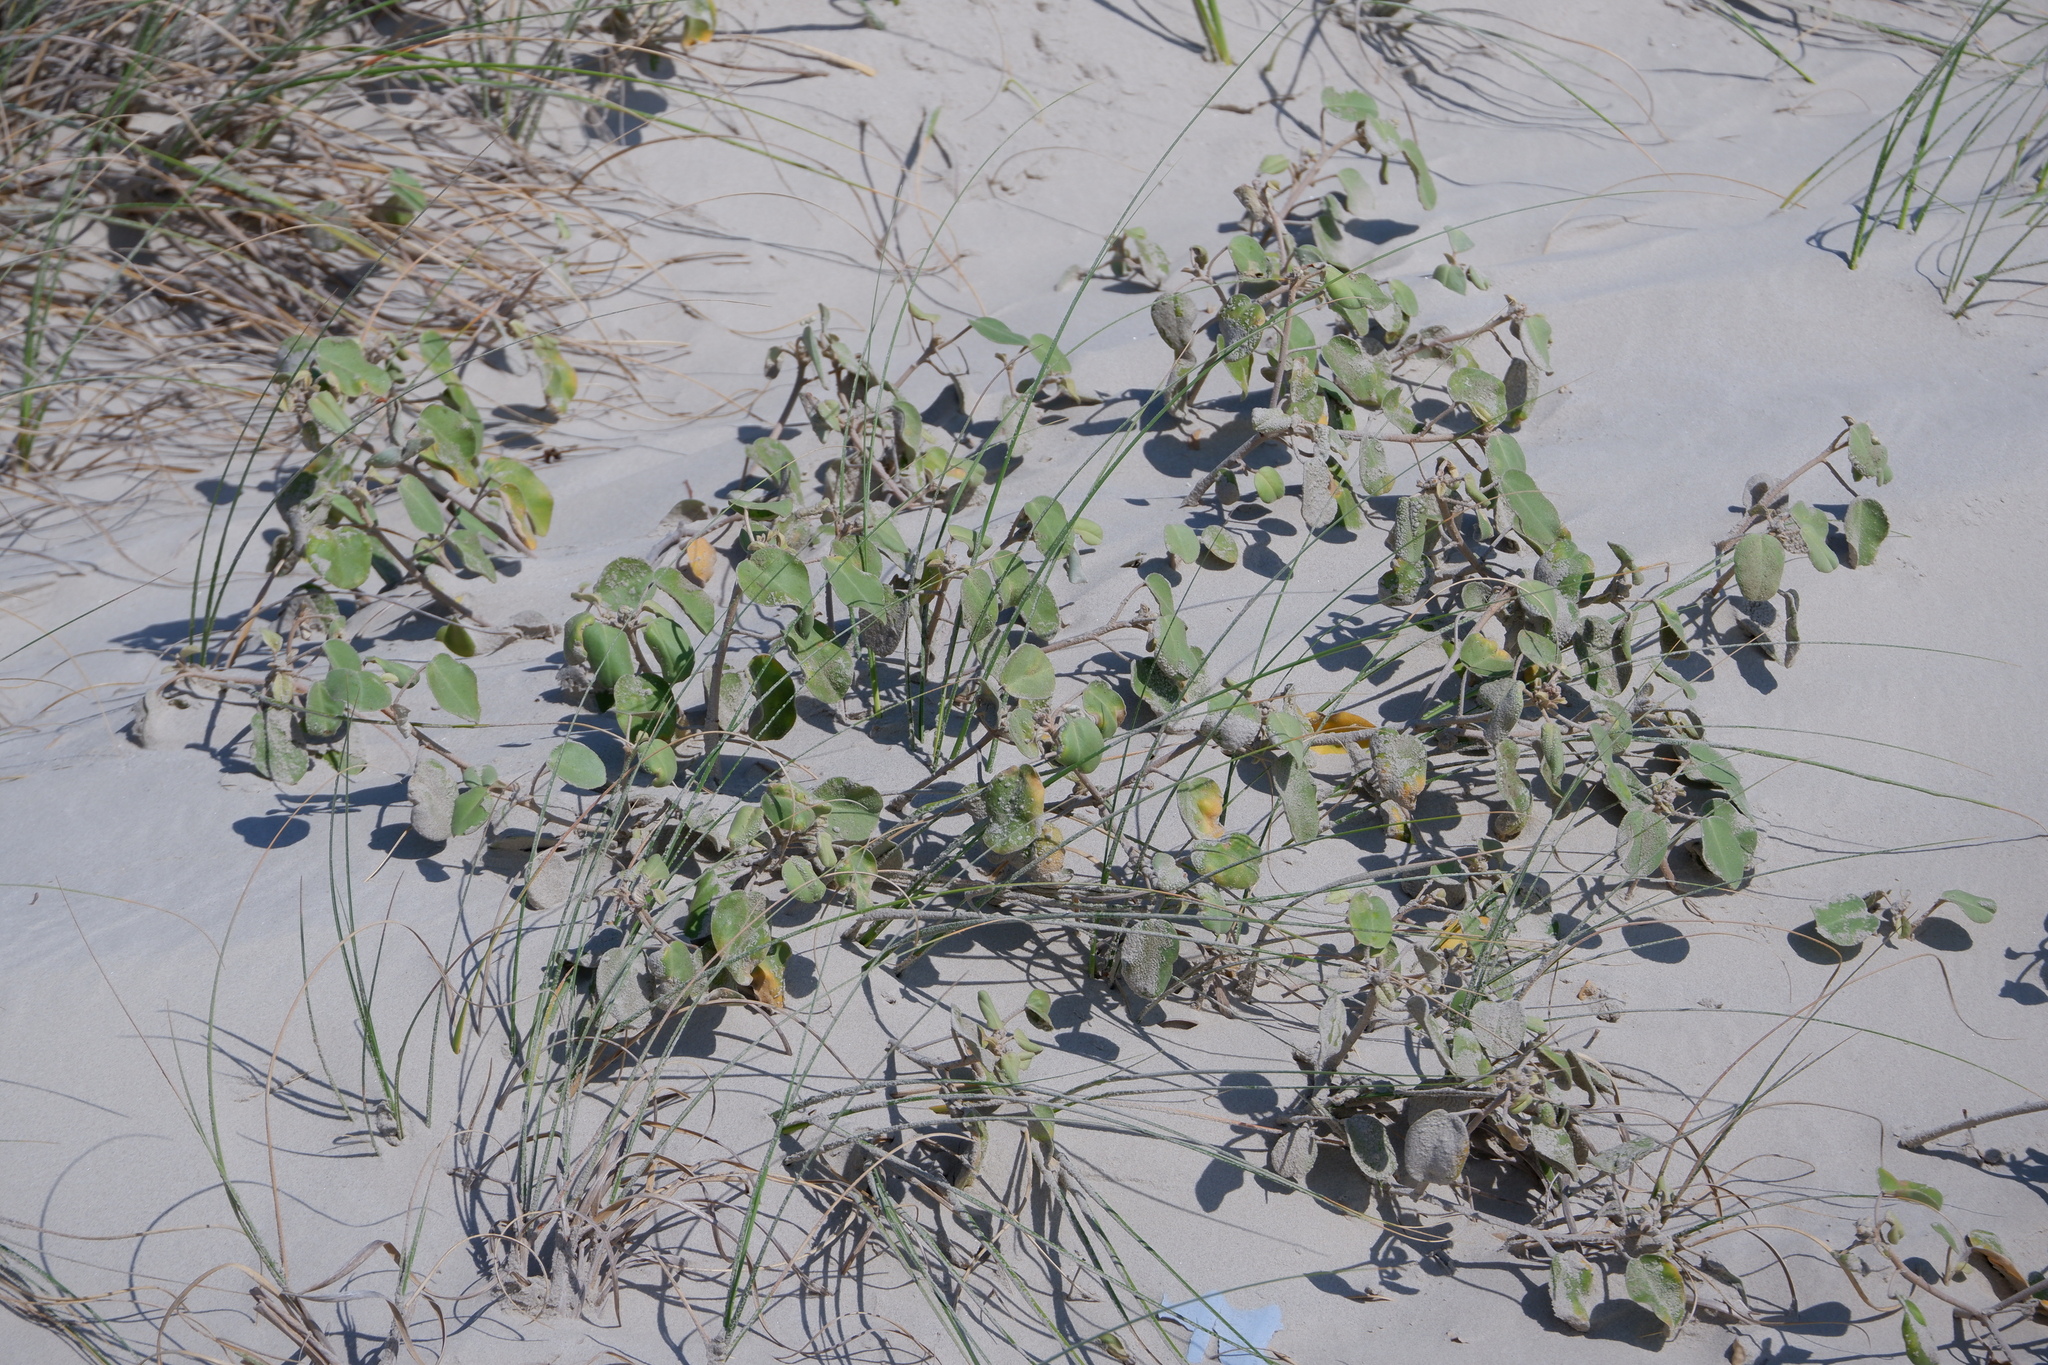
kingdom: Plantae
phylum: Tracheophyta
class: Magnoliopsida
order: Malpighiales
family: Euphorbiaceae
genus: Croton
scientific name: Croton punctatus
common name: Beach-tea
